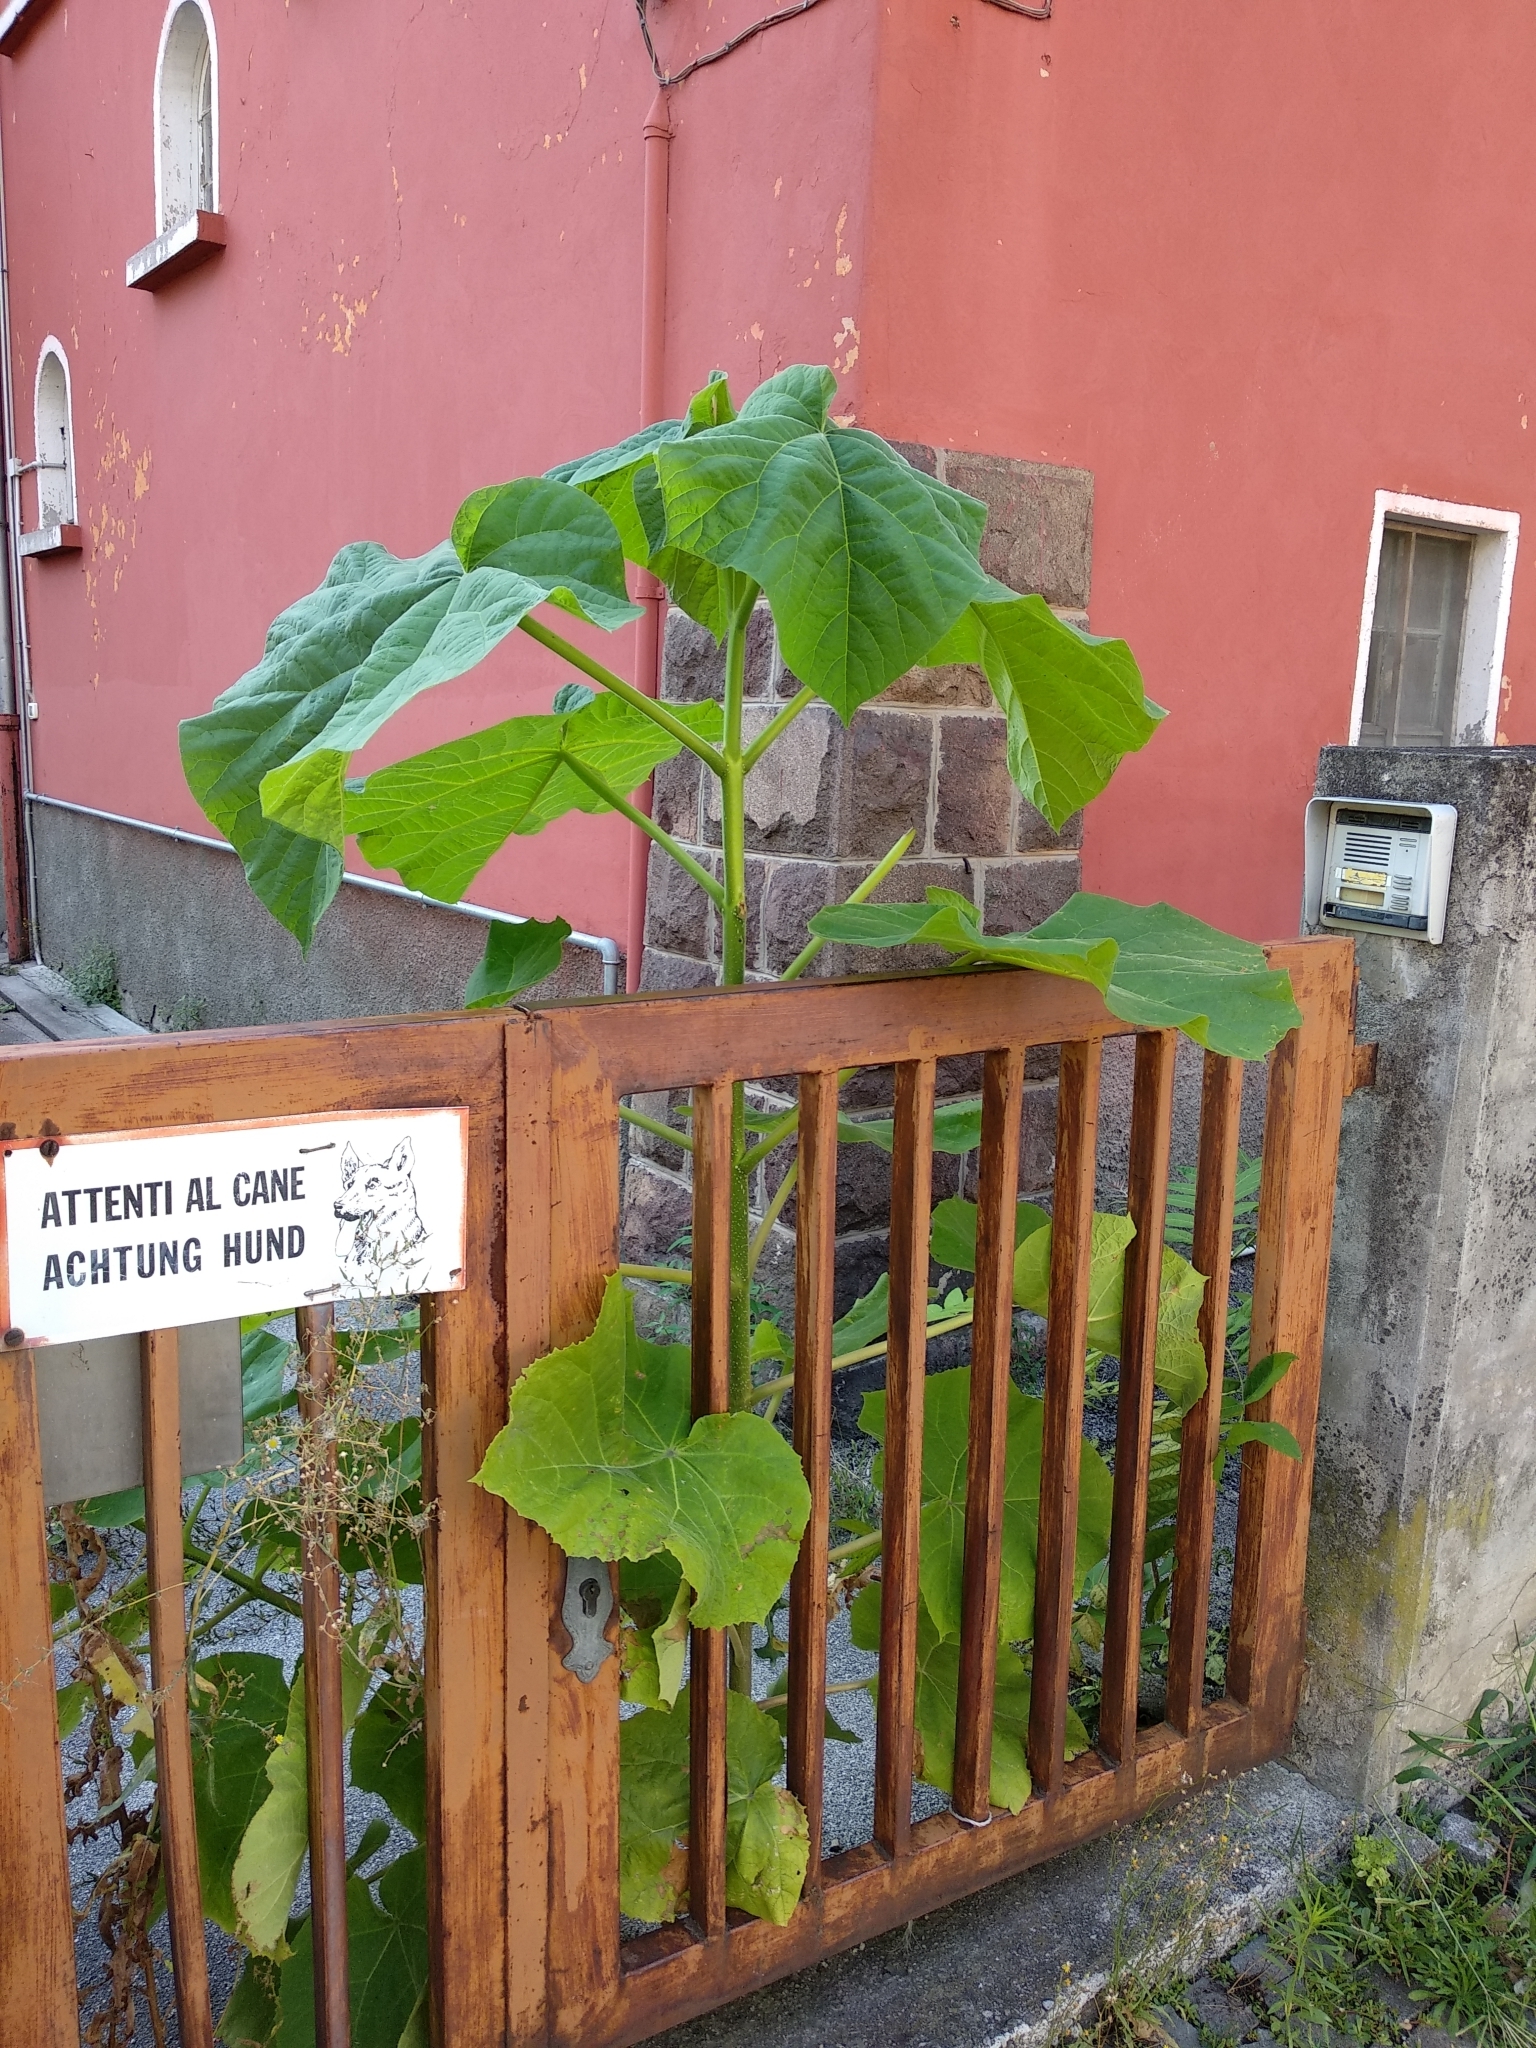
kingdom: Plantae
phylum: Tracheophyta
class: Magnoliopsida
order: Lamiales
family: Paulowniaceae
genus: Paulownia
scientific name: Paulownia tomentosa
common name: Foxglove-tree
